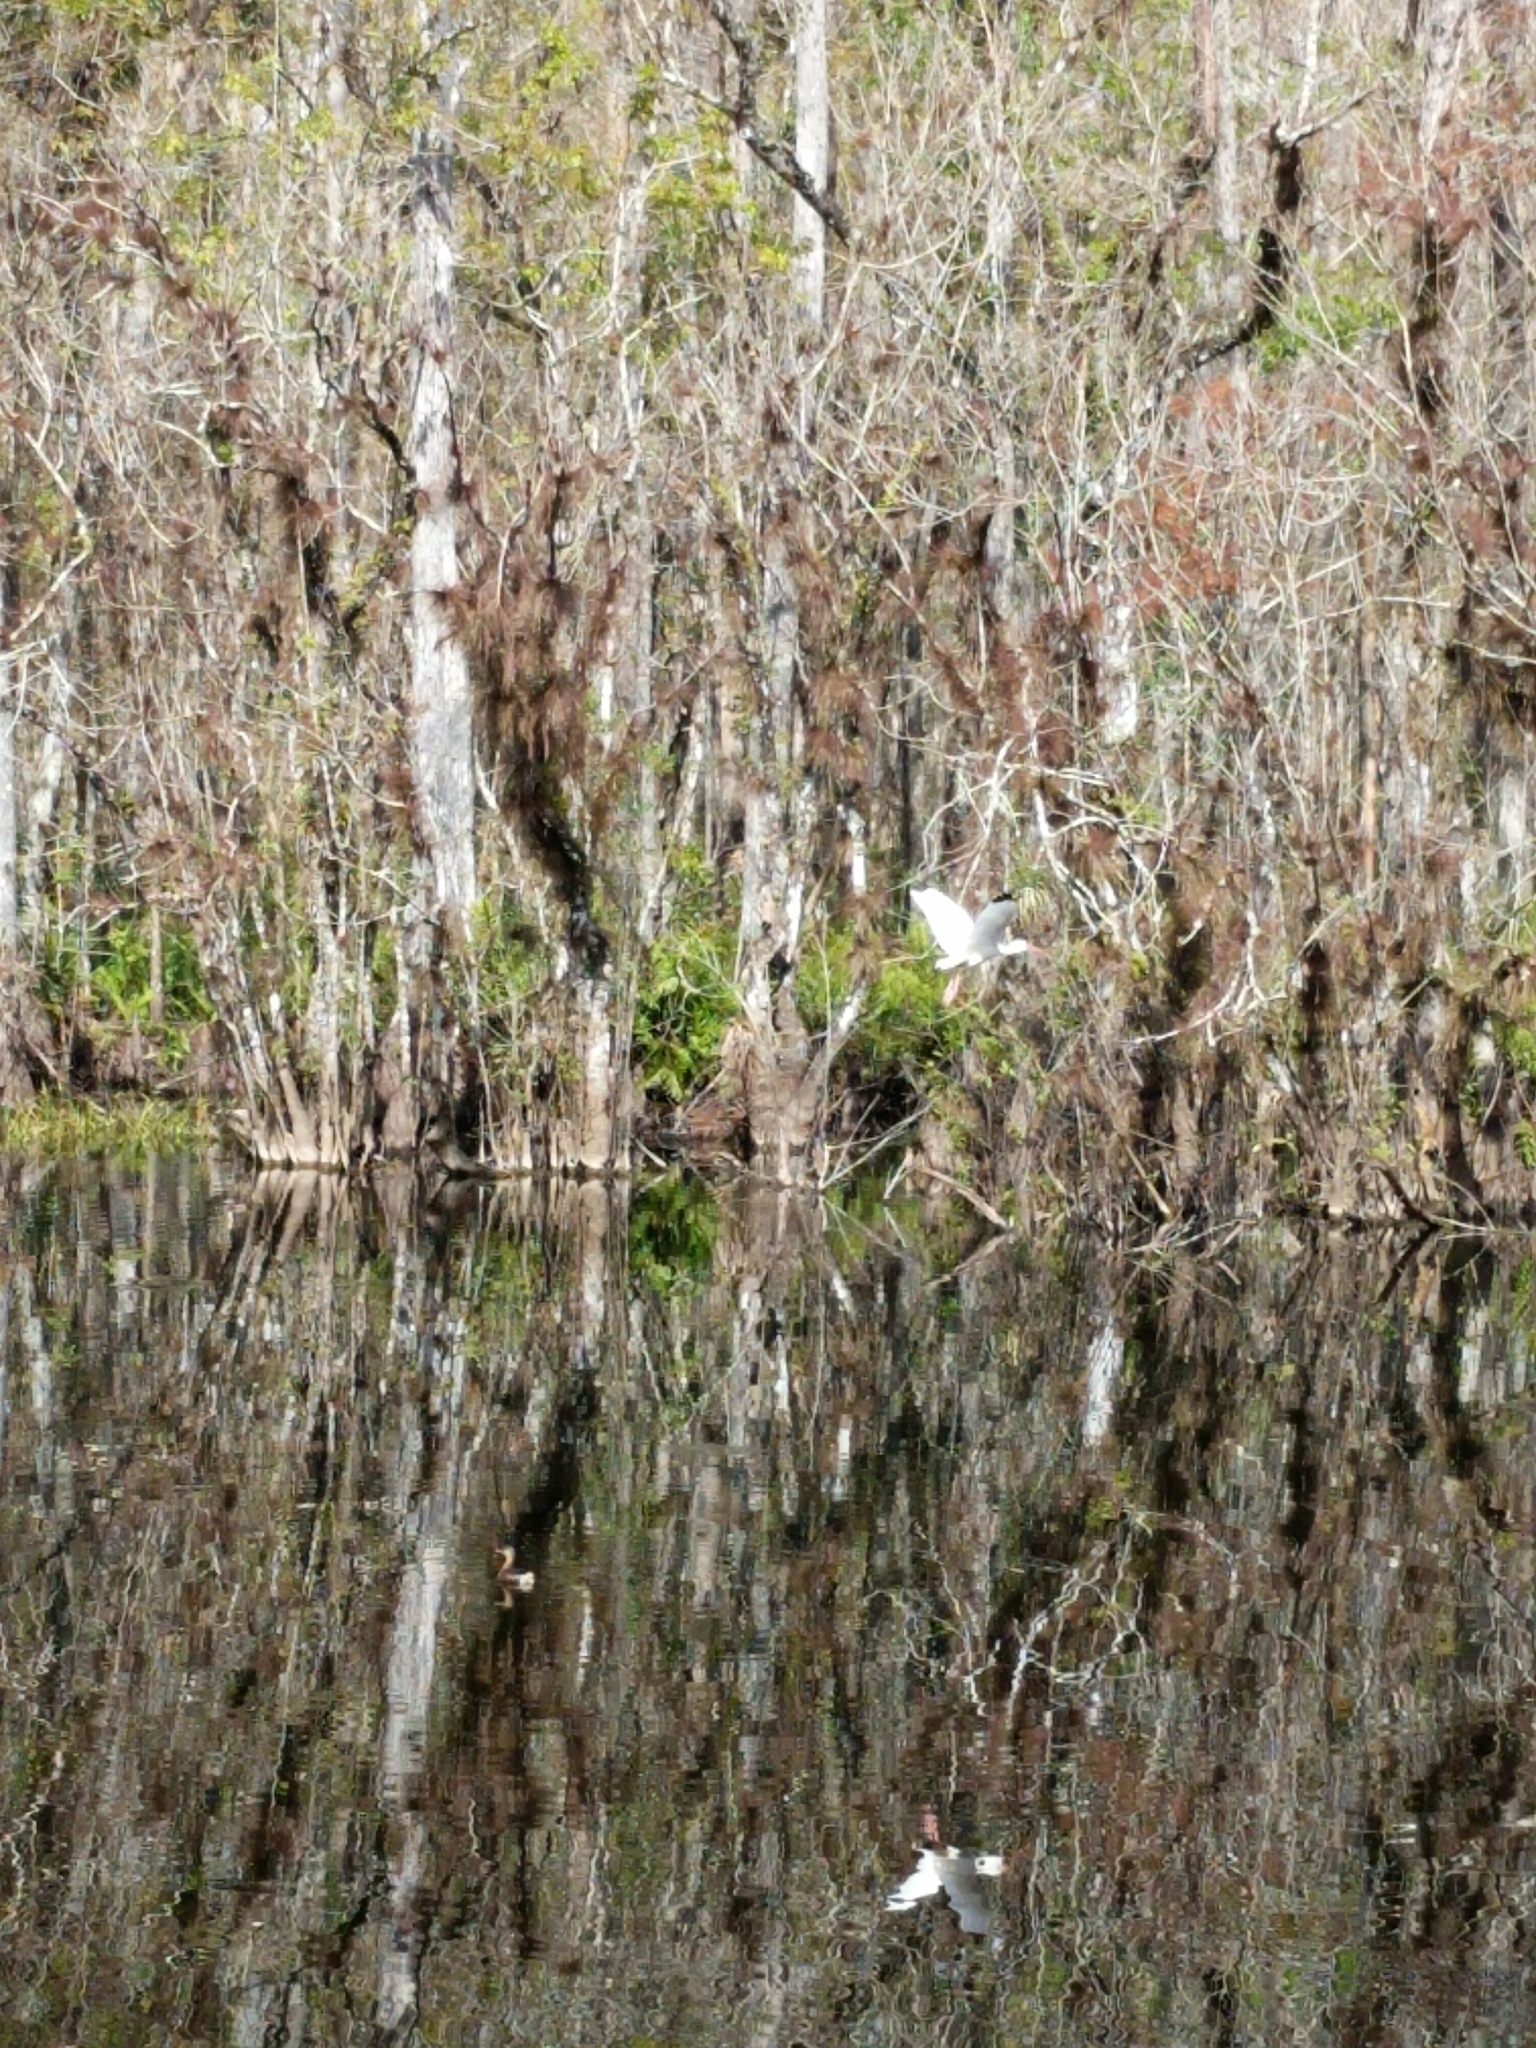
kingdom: Animalia
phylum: Chordata
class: Aves
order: Pelecaniformes
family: Threskiornithidae
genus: Eudocimus
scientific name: Eudocimus albus
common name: White ibis
